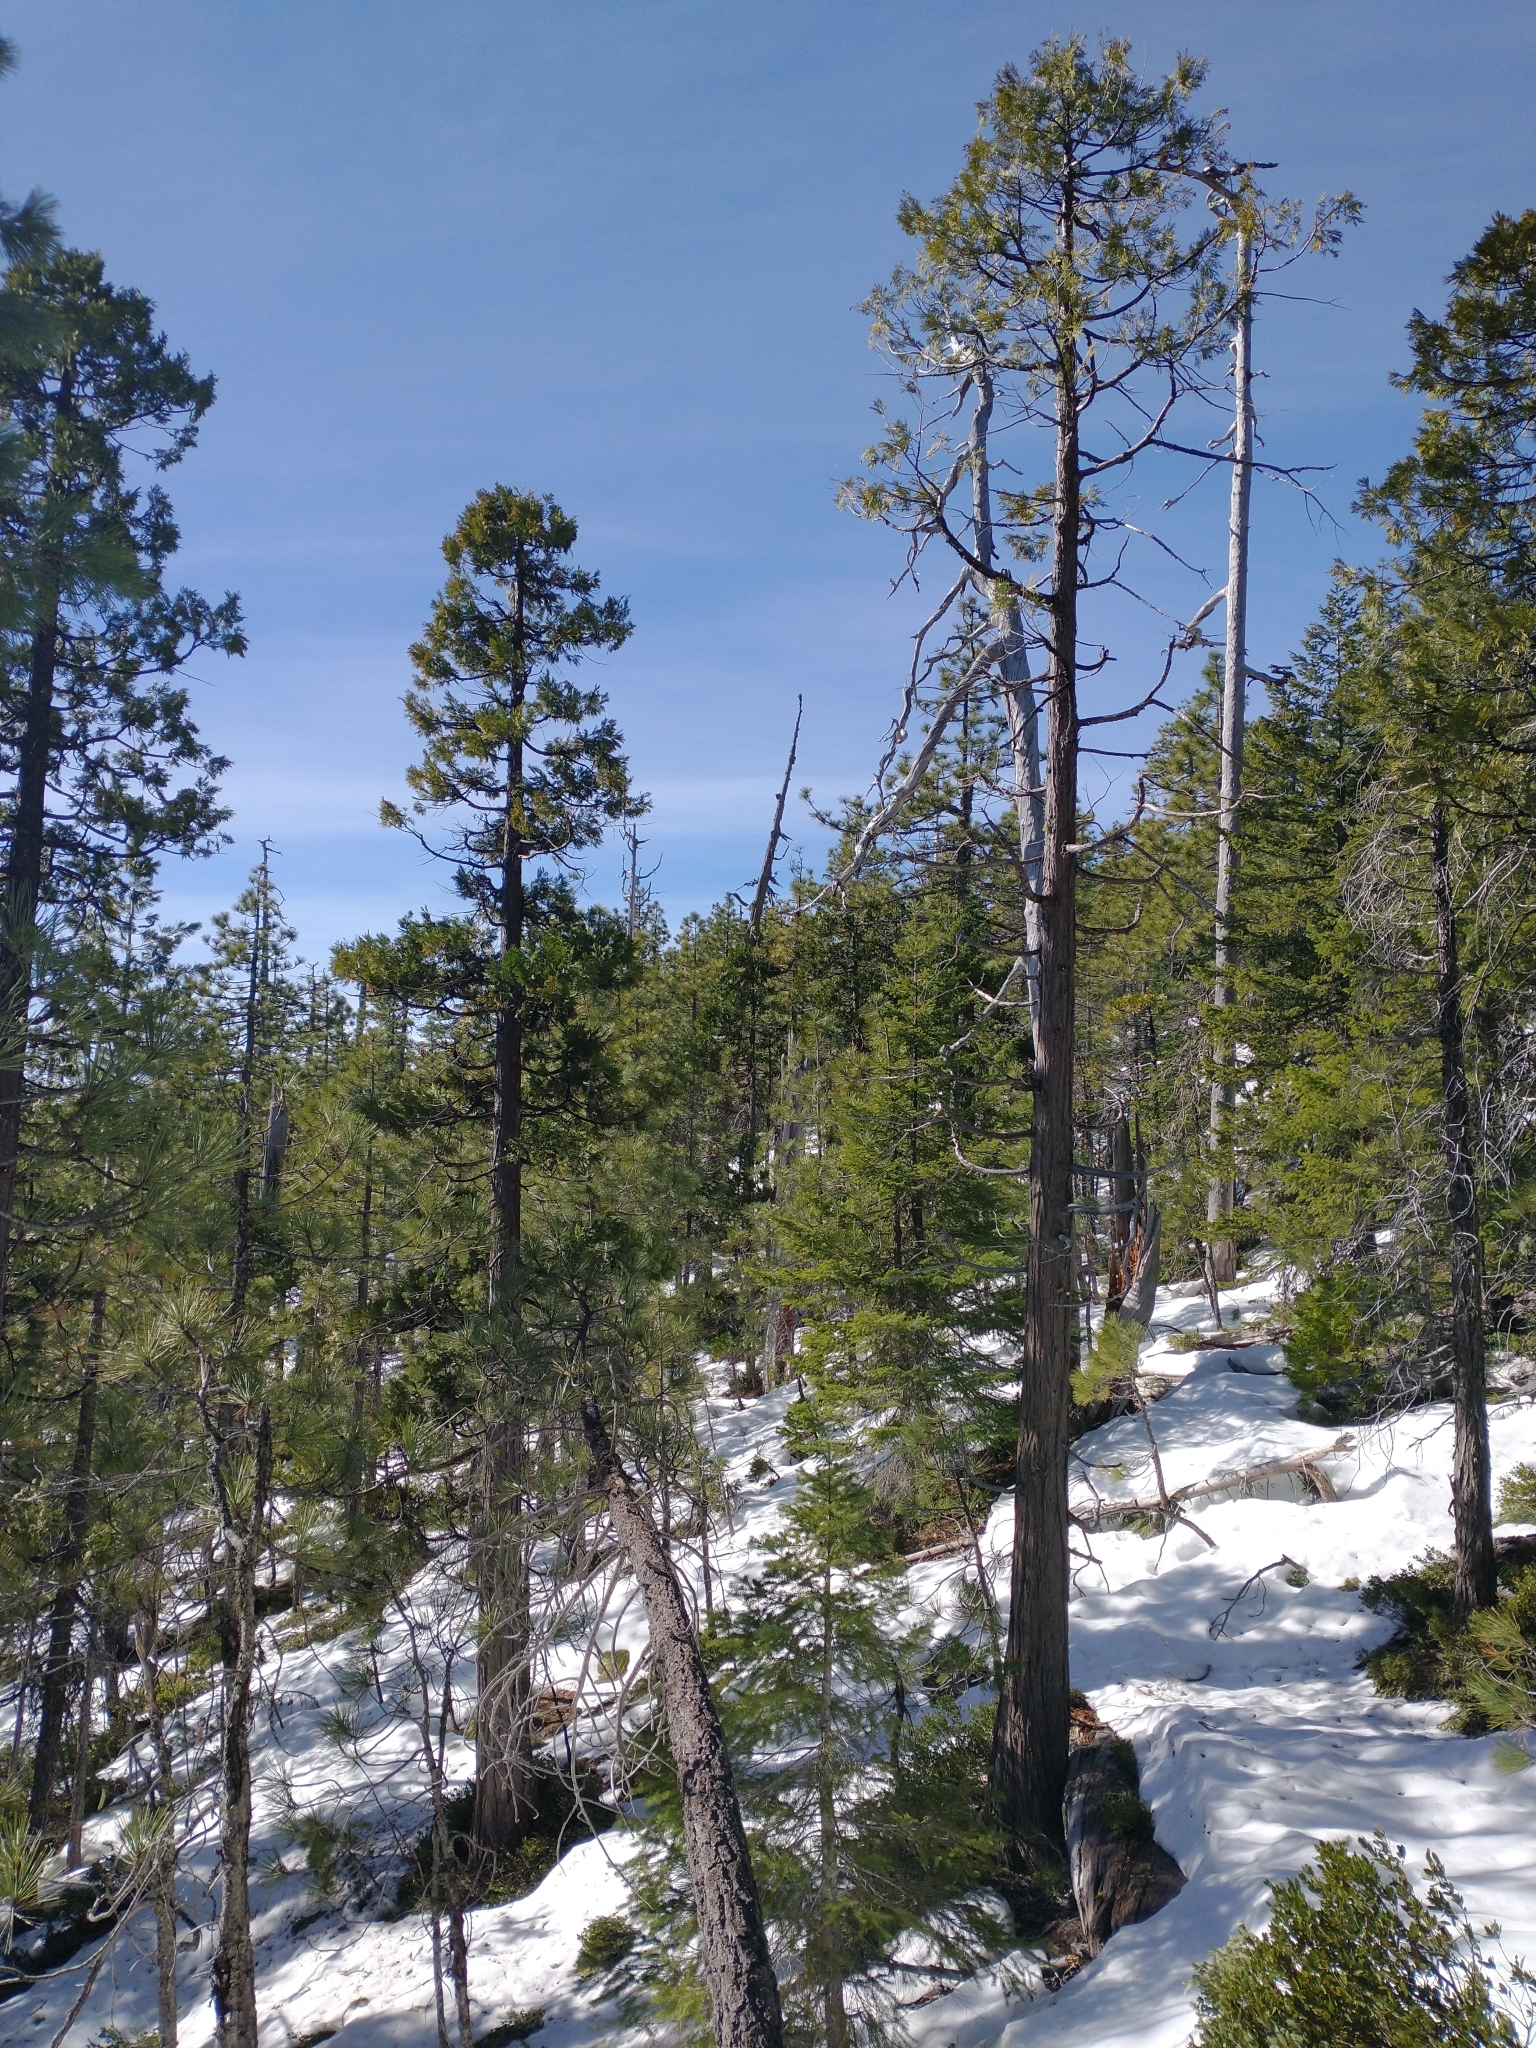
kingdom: Plantae
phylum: Tracheophyta
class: Pinopsida
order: Pinales
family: Cupressaceae
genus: Calocedrus
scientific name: Calocedrus decurrens
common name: Californian incense-cedar
